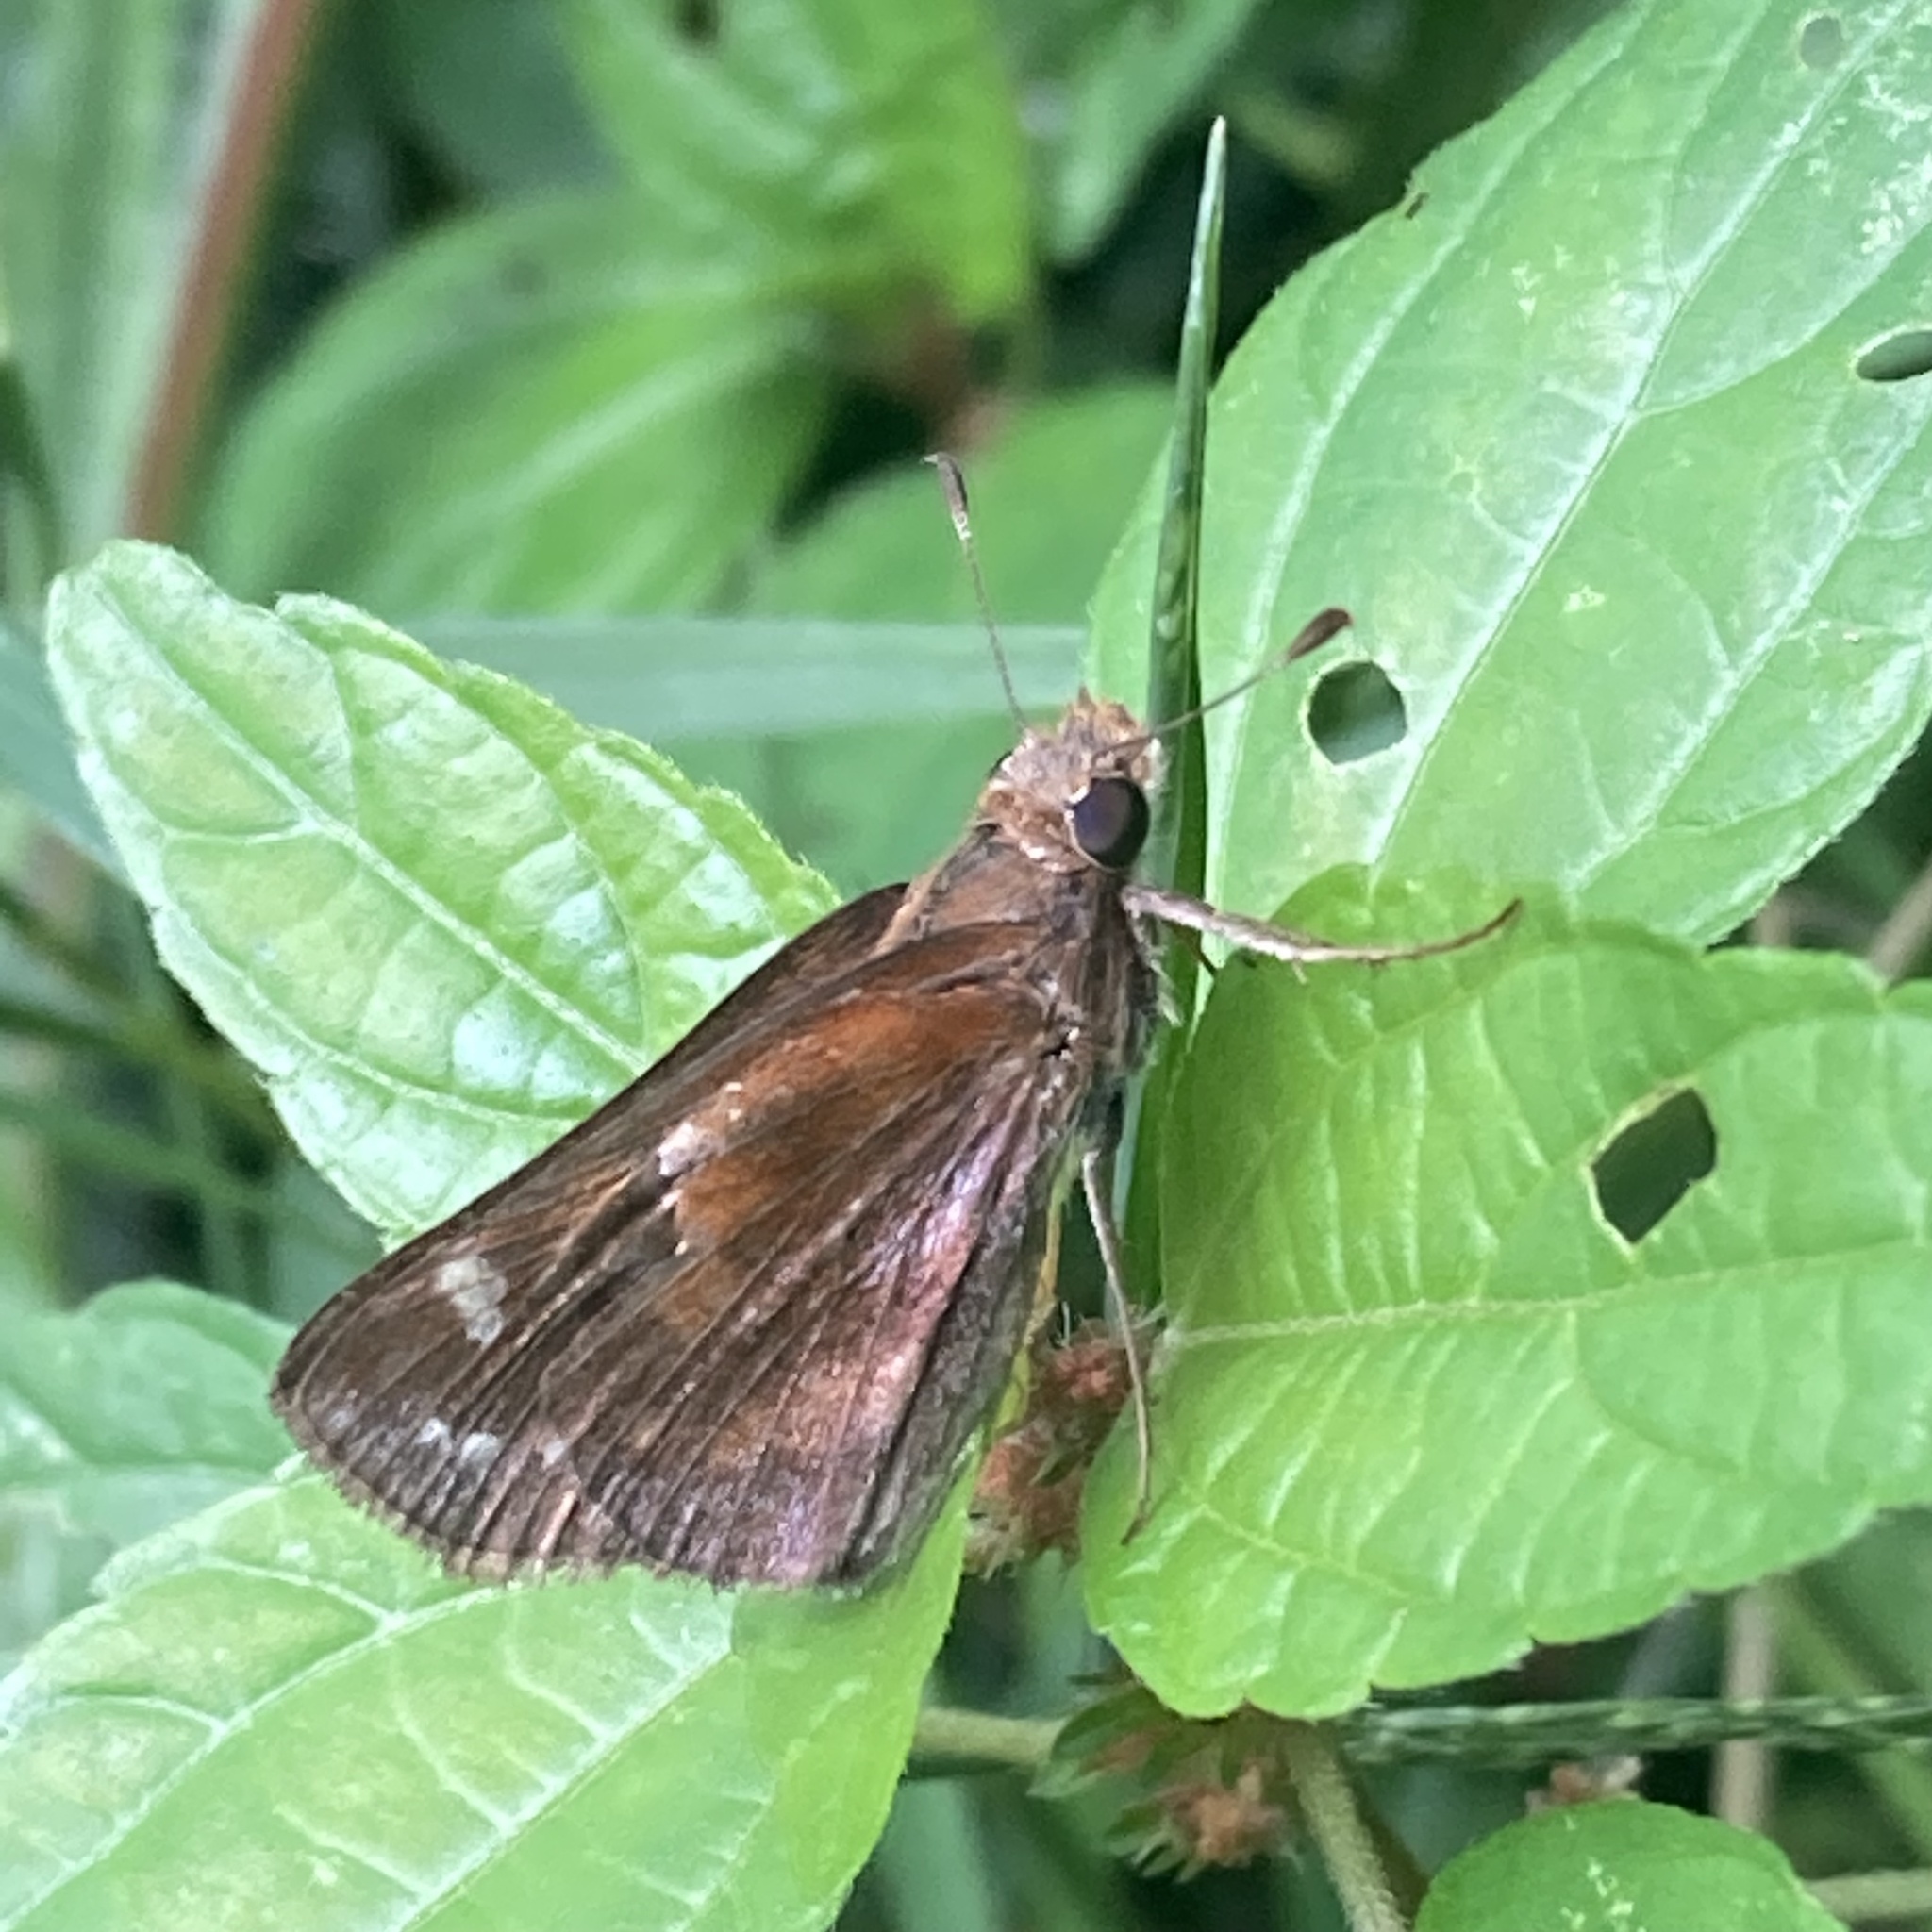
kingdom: Animalia
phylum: Arthropoda
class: Insecta
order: Lepidoptera
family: Hesperiidae
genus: Lon
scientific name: Lon zabulon
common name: Zabulon skipper
